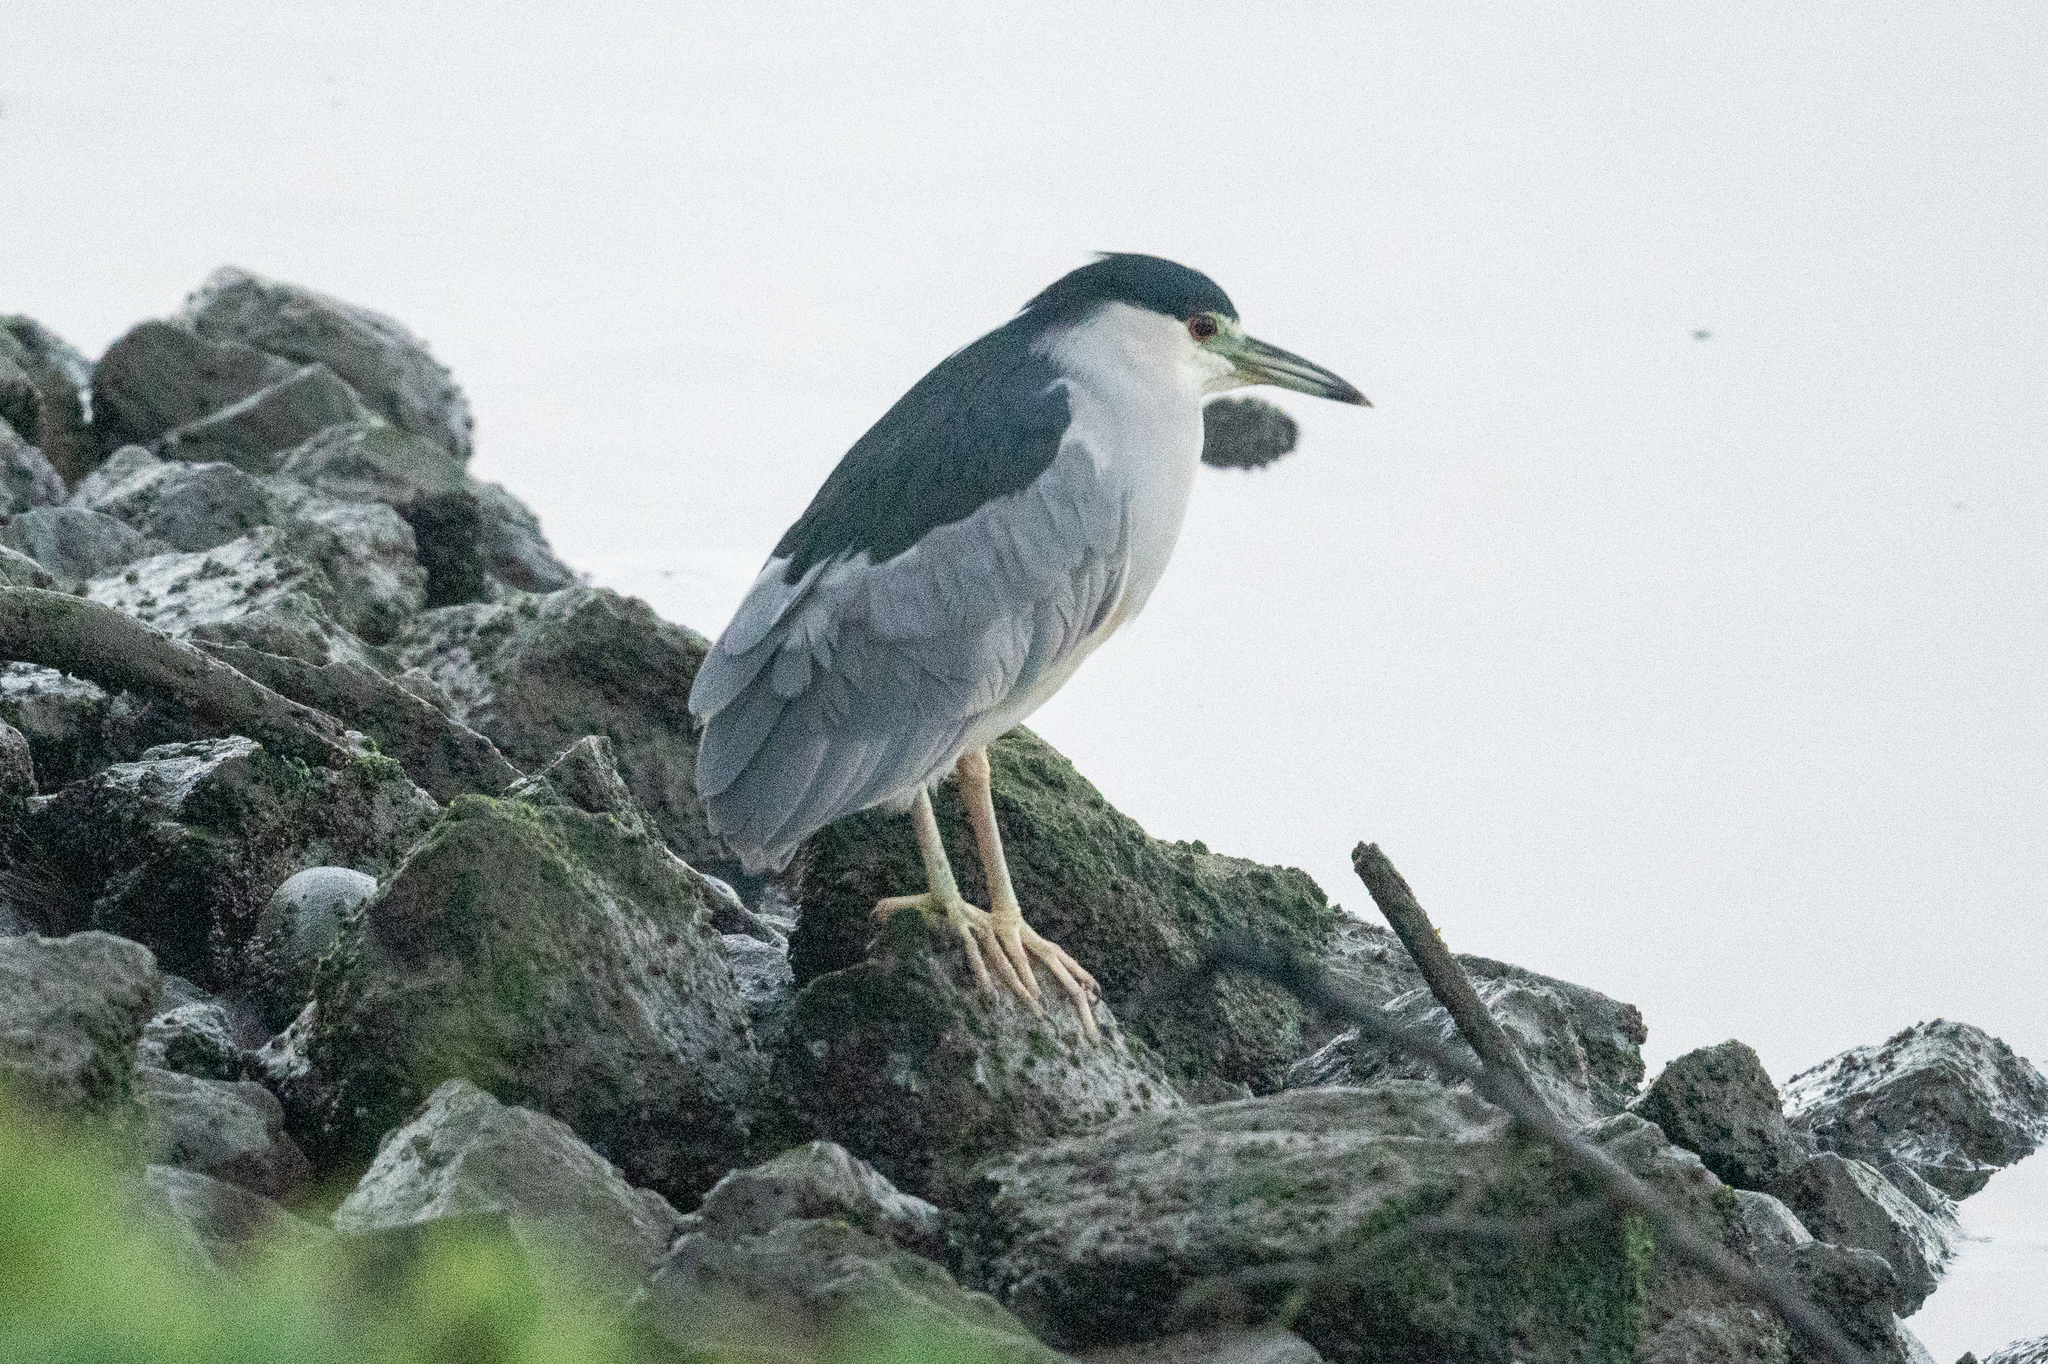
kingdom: Animalia
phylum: Chordata
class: Aves
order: Pelecaniformes
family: Ardeidae
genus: Nycticorax
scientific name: Nycticorax nycticorax
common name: Black-crowned night heron
